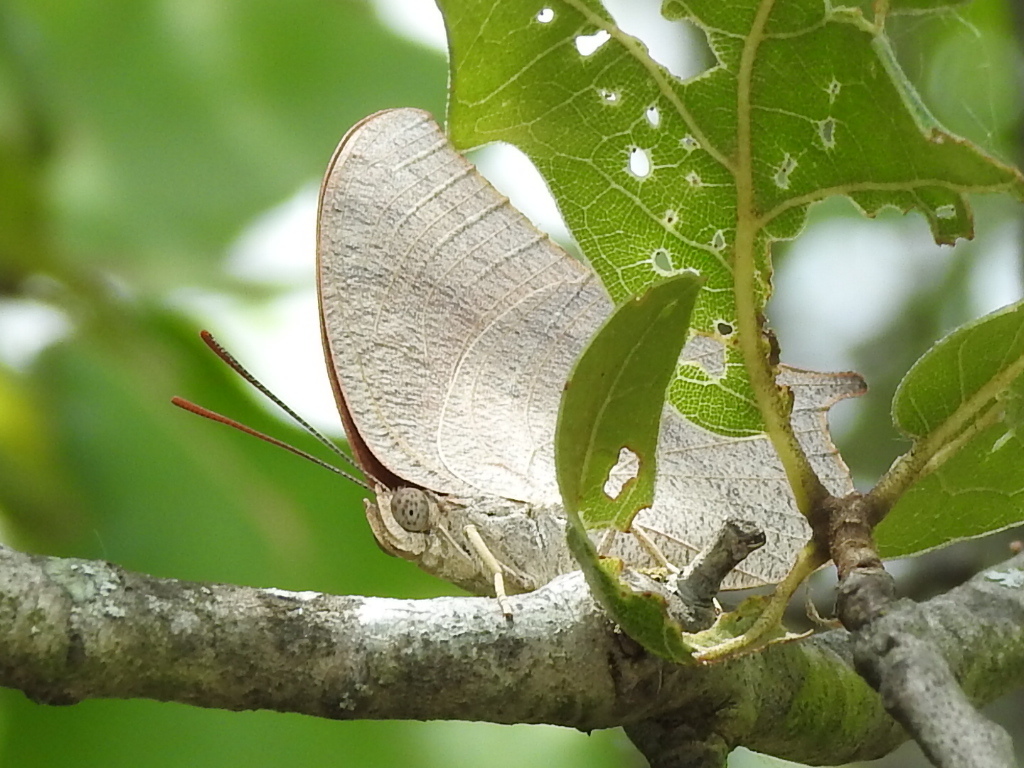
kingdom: Animalia
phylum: Arthropoda
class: Insecta
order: Lepidoptera
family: Nymphalidae
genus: Anaea
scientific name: Anaea andria
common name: Goatweed leafwing
